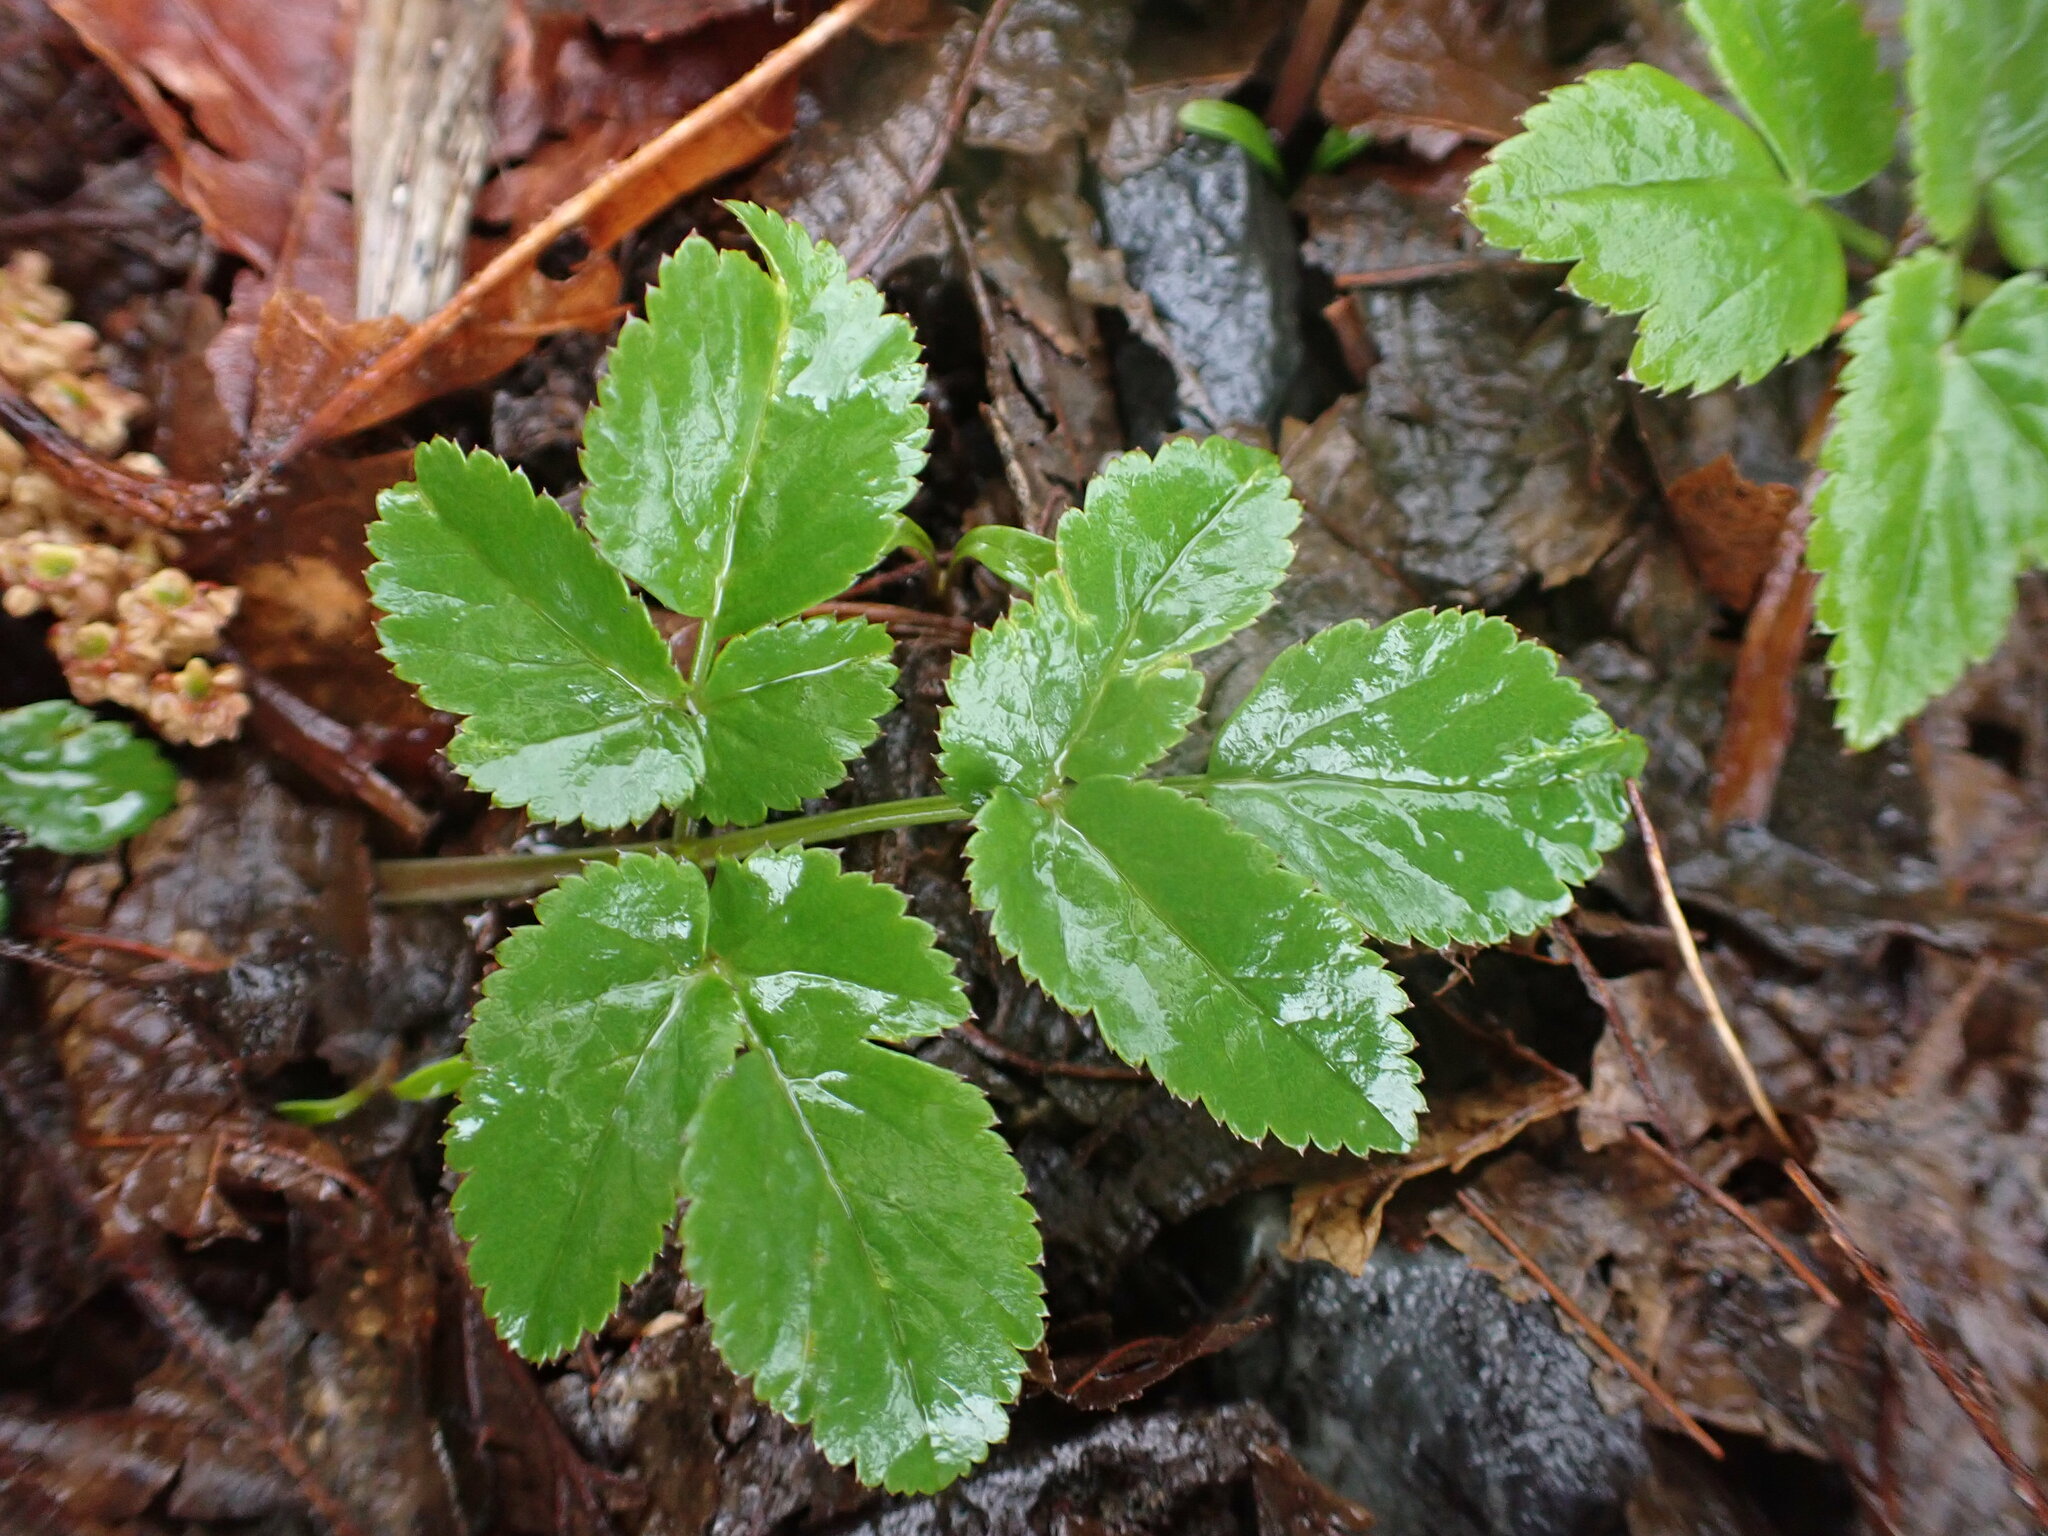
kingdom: Plantae
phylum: Tracheophyta
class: Magnoliopsida
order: Apiales
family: Apiaceae
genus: Aegopodium
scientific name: Aegopodium podagraria
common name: Ground-elder
